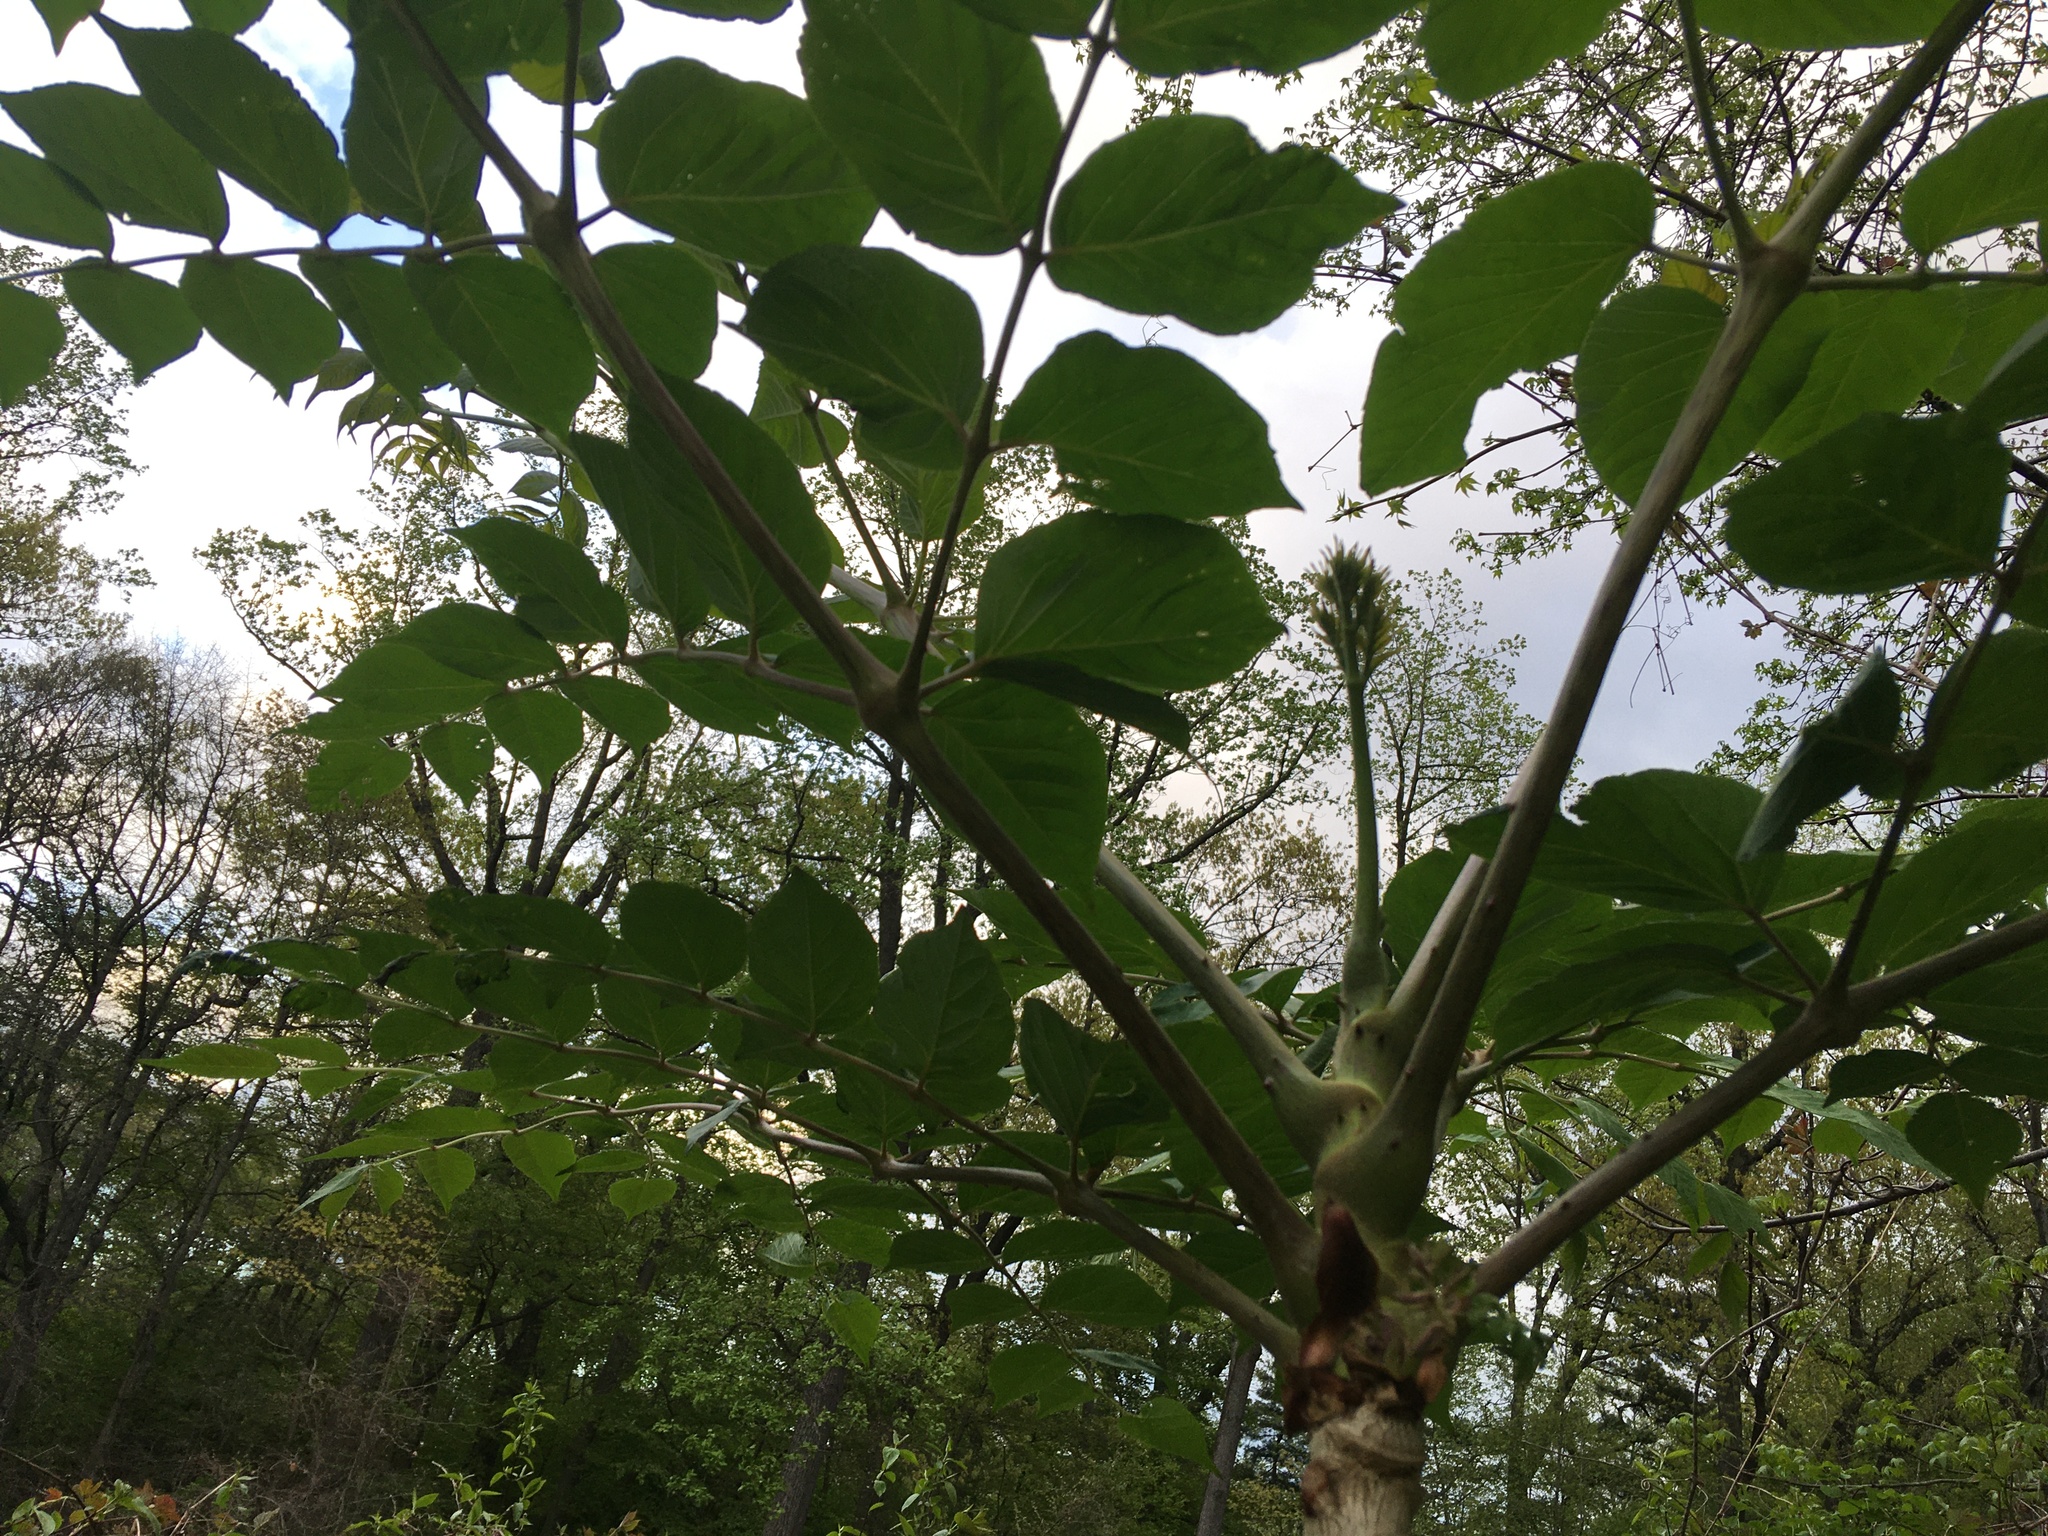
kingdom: Plantae
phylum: Tracheophyta
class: Magnoliopsida
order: Apiales
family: Araliaceae
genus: Aralia
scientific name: Aralia elata
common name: Japanese angelica-tree
